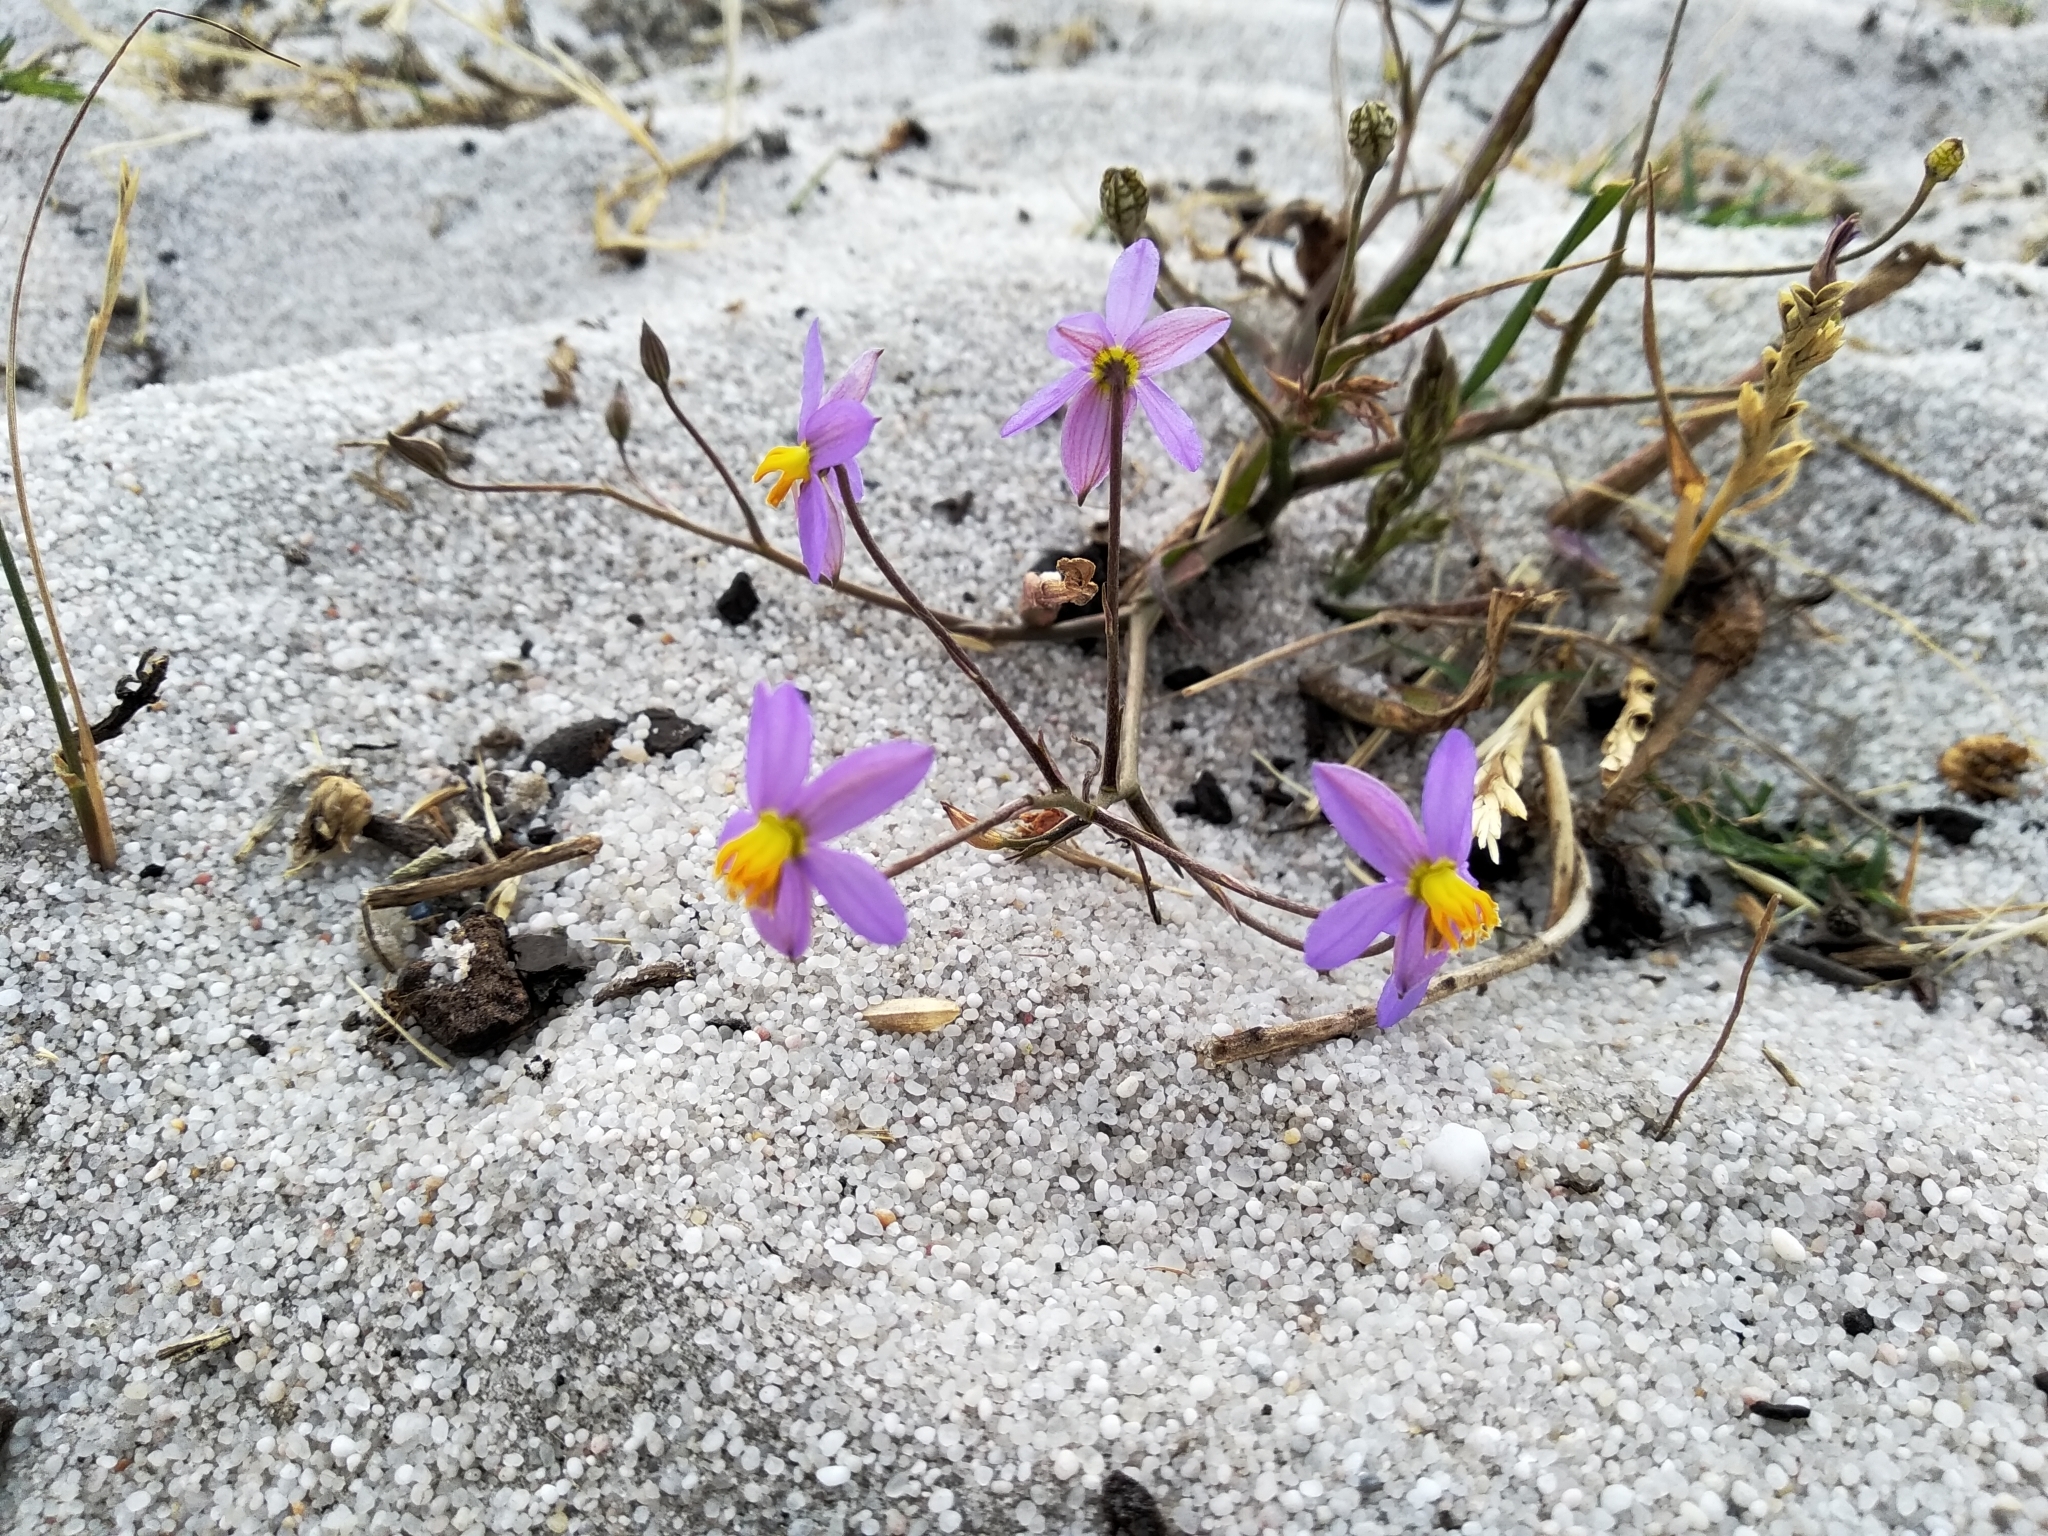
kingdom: Plantae
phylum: Tracheophyta
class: Liliopsida
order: Asparagales
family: Tecophilaeaceae
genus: Cyanella
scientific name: Cyanella hyacinthoides
